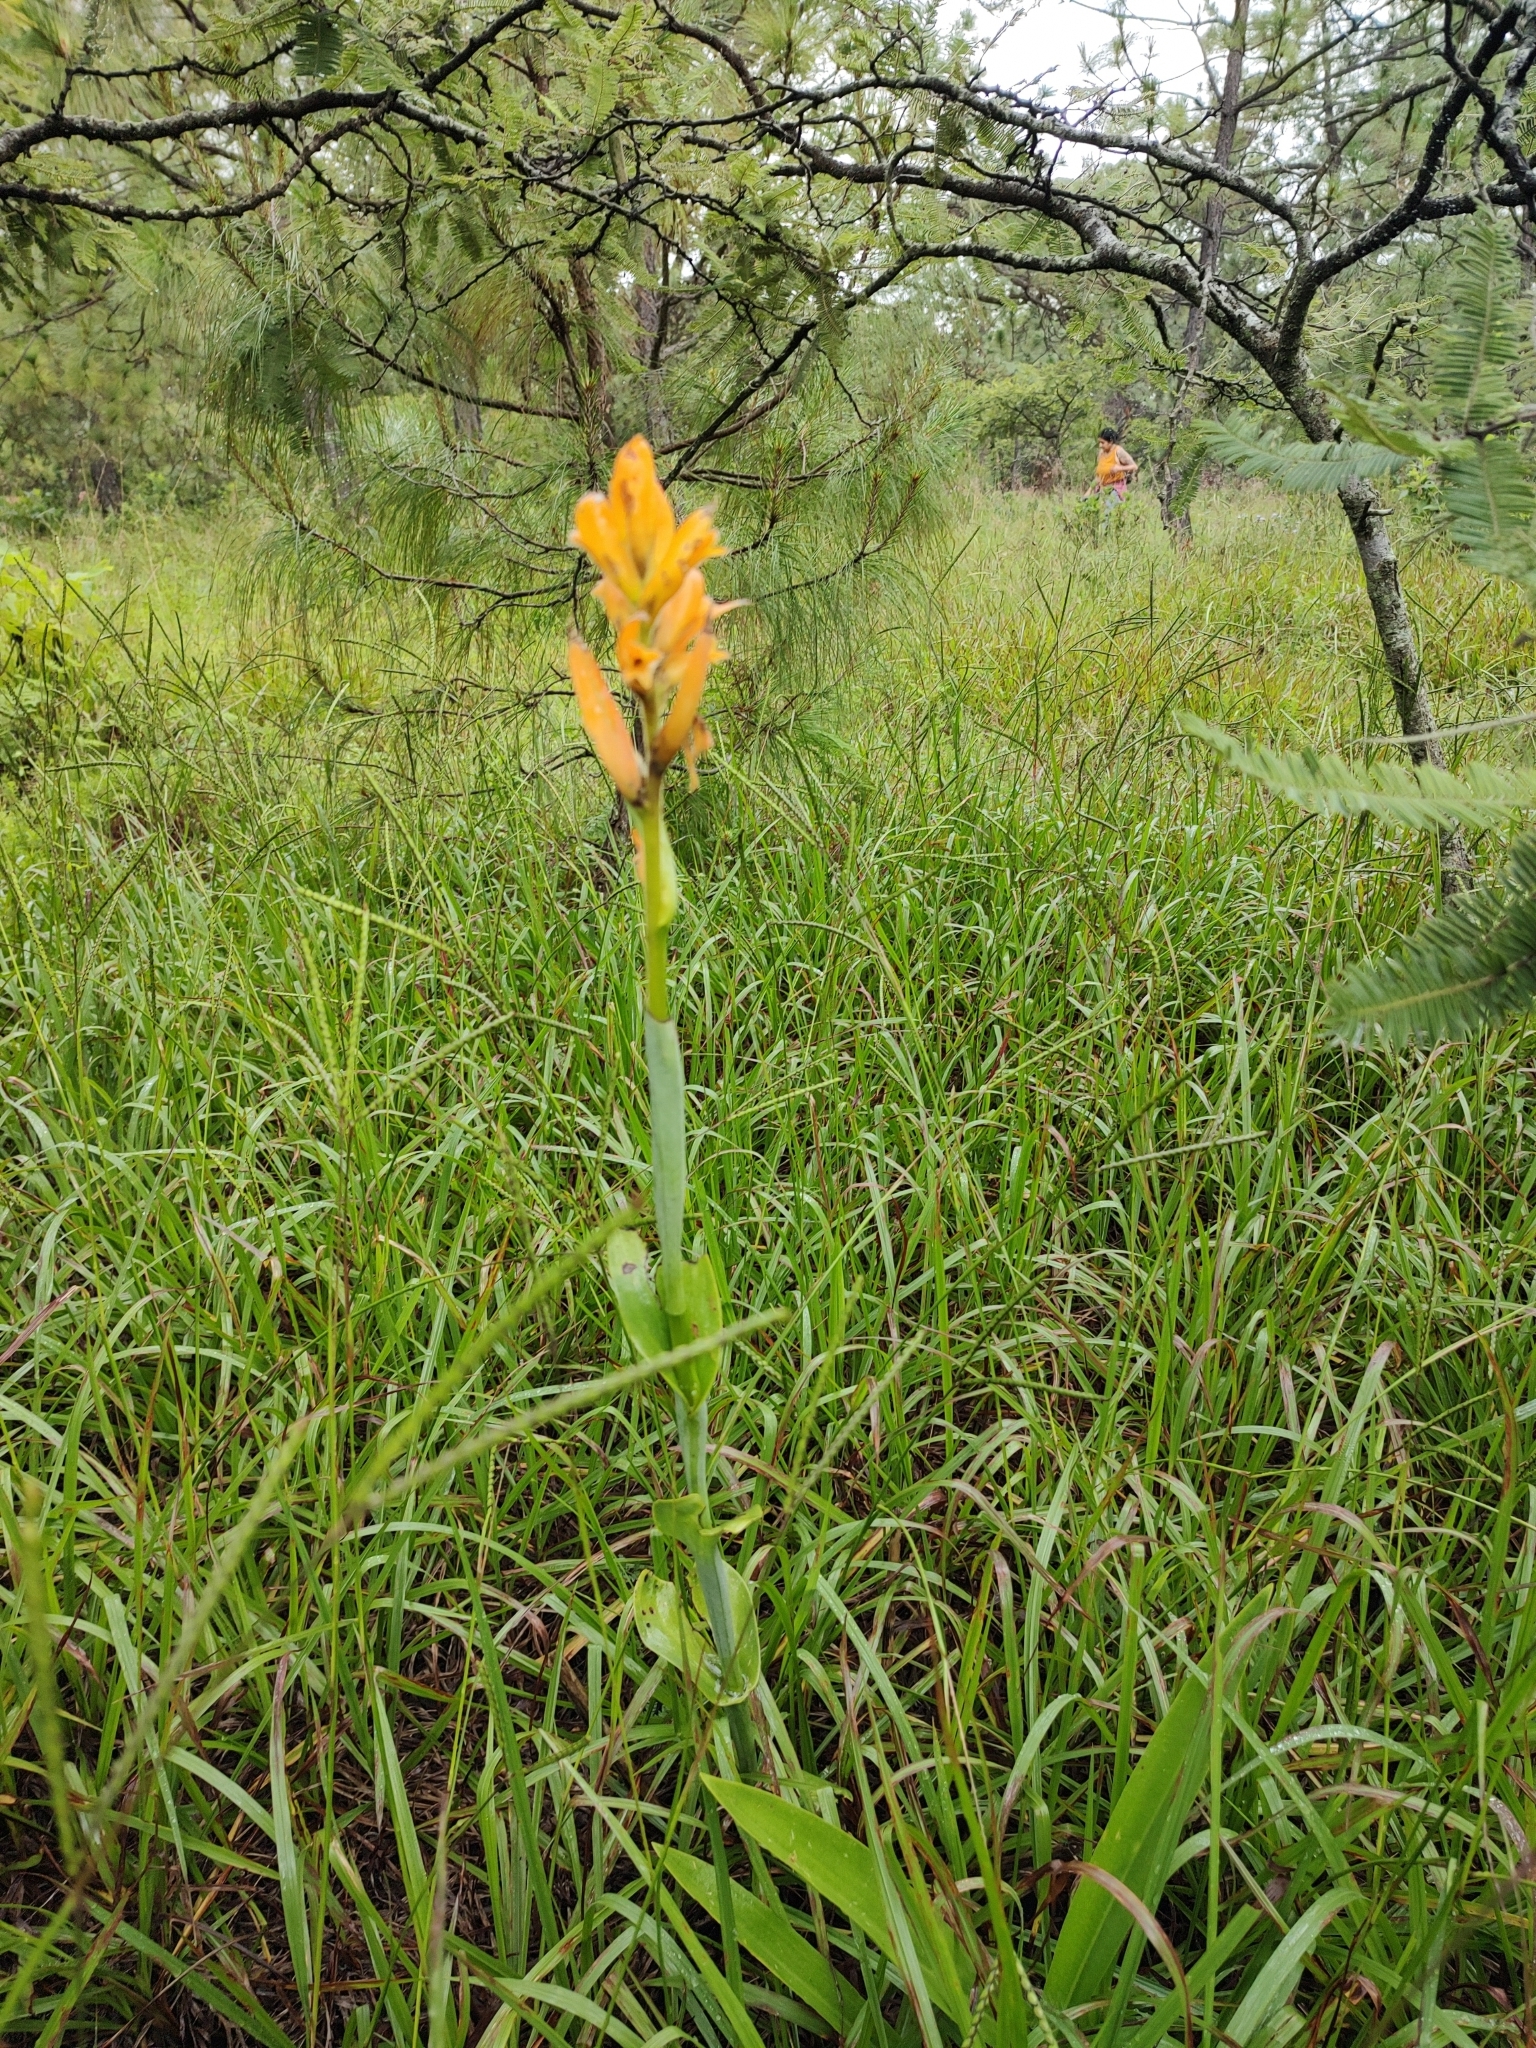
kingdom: Plantae
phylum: Tracheophyta
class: Liliopsida
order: Asparagales
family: Orchidaceae
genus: Dichromanthus
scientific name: Dichromanthus aurantiacus
